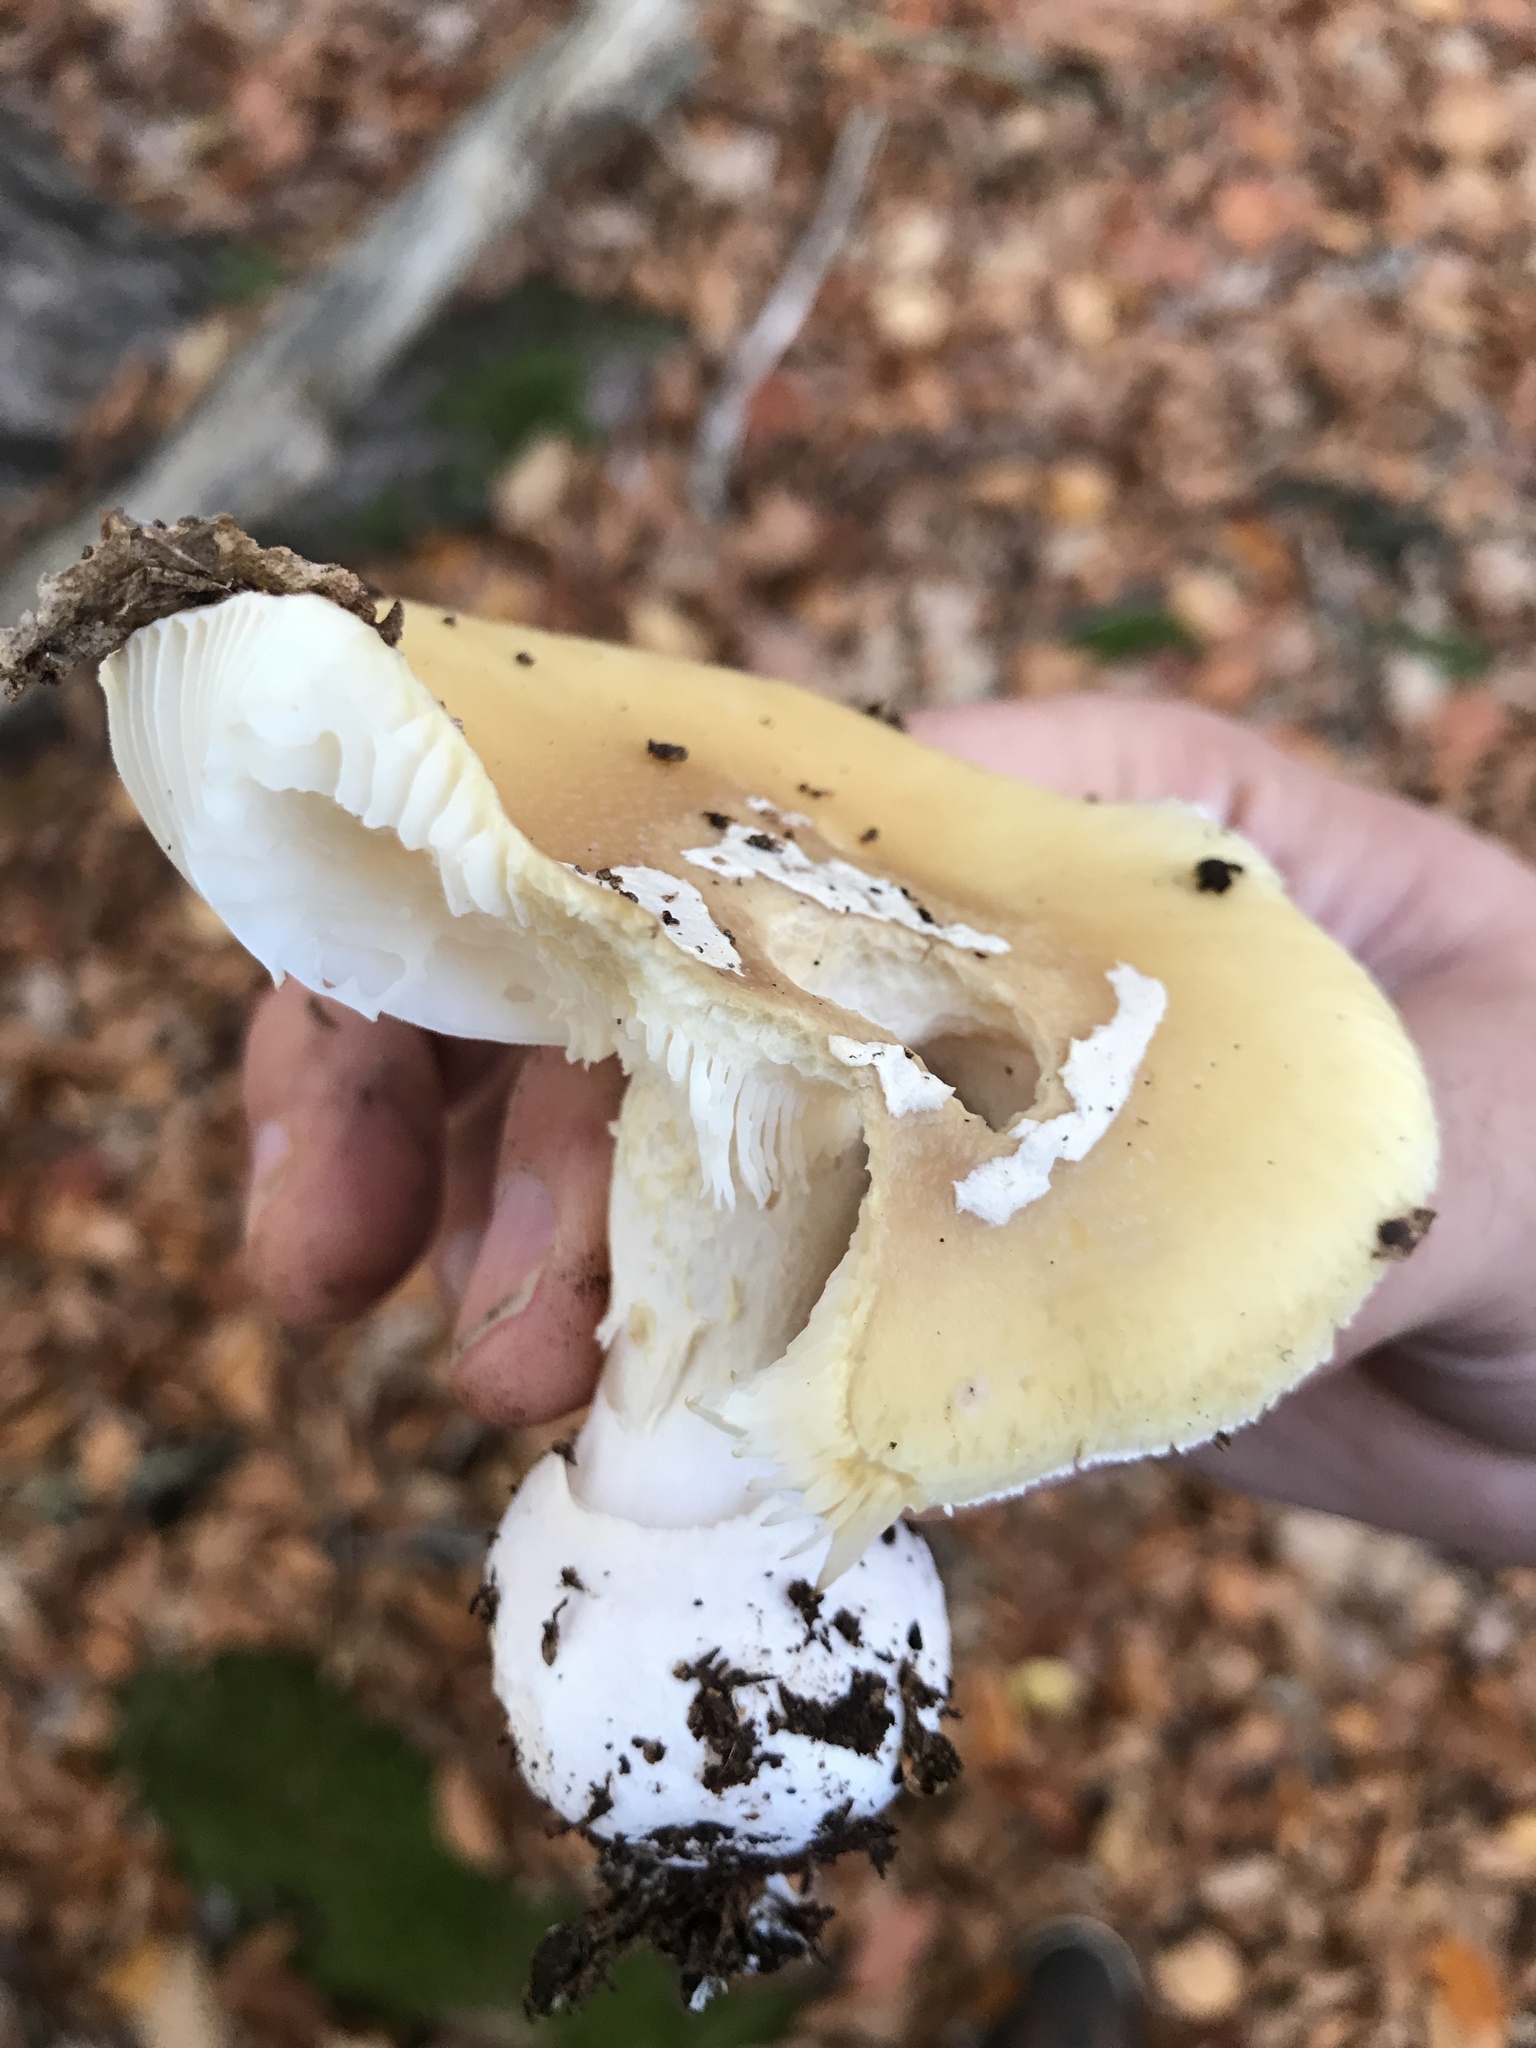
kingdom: Fungi
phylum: Basidiomycota
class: Agaricomycetes
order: Agaricales
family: Amanitaceae
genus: Amanita
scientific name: Amanita gemmata
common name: Jewelled amanita
